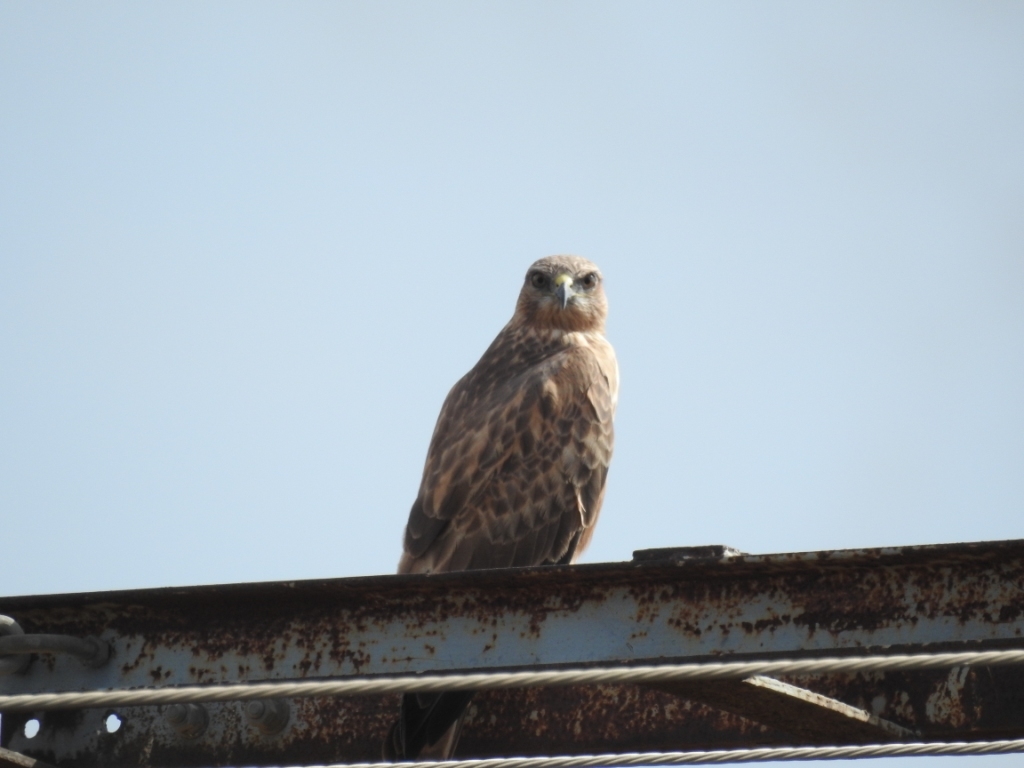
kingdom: Animalia
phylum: Chordata
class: Aves
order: Accipitriformes
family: Accipitridae
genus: Buteo
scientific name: Buteo rufinus
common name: Long-legged buzzard
